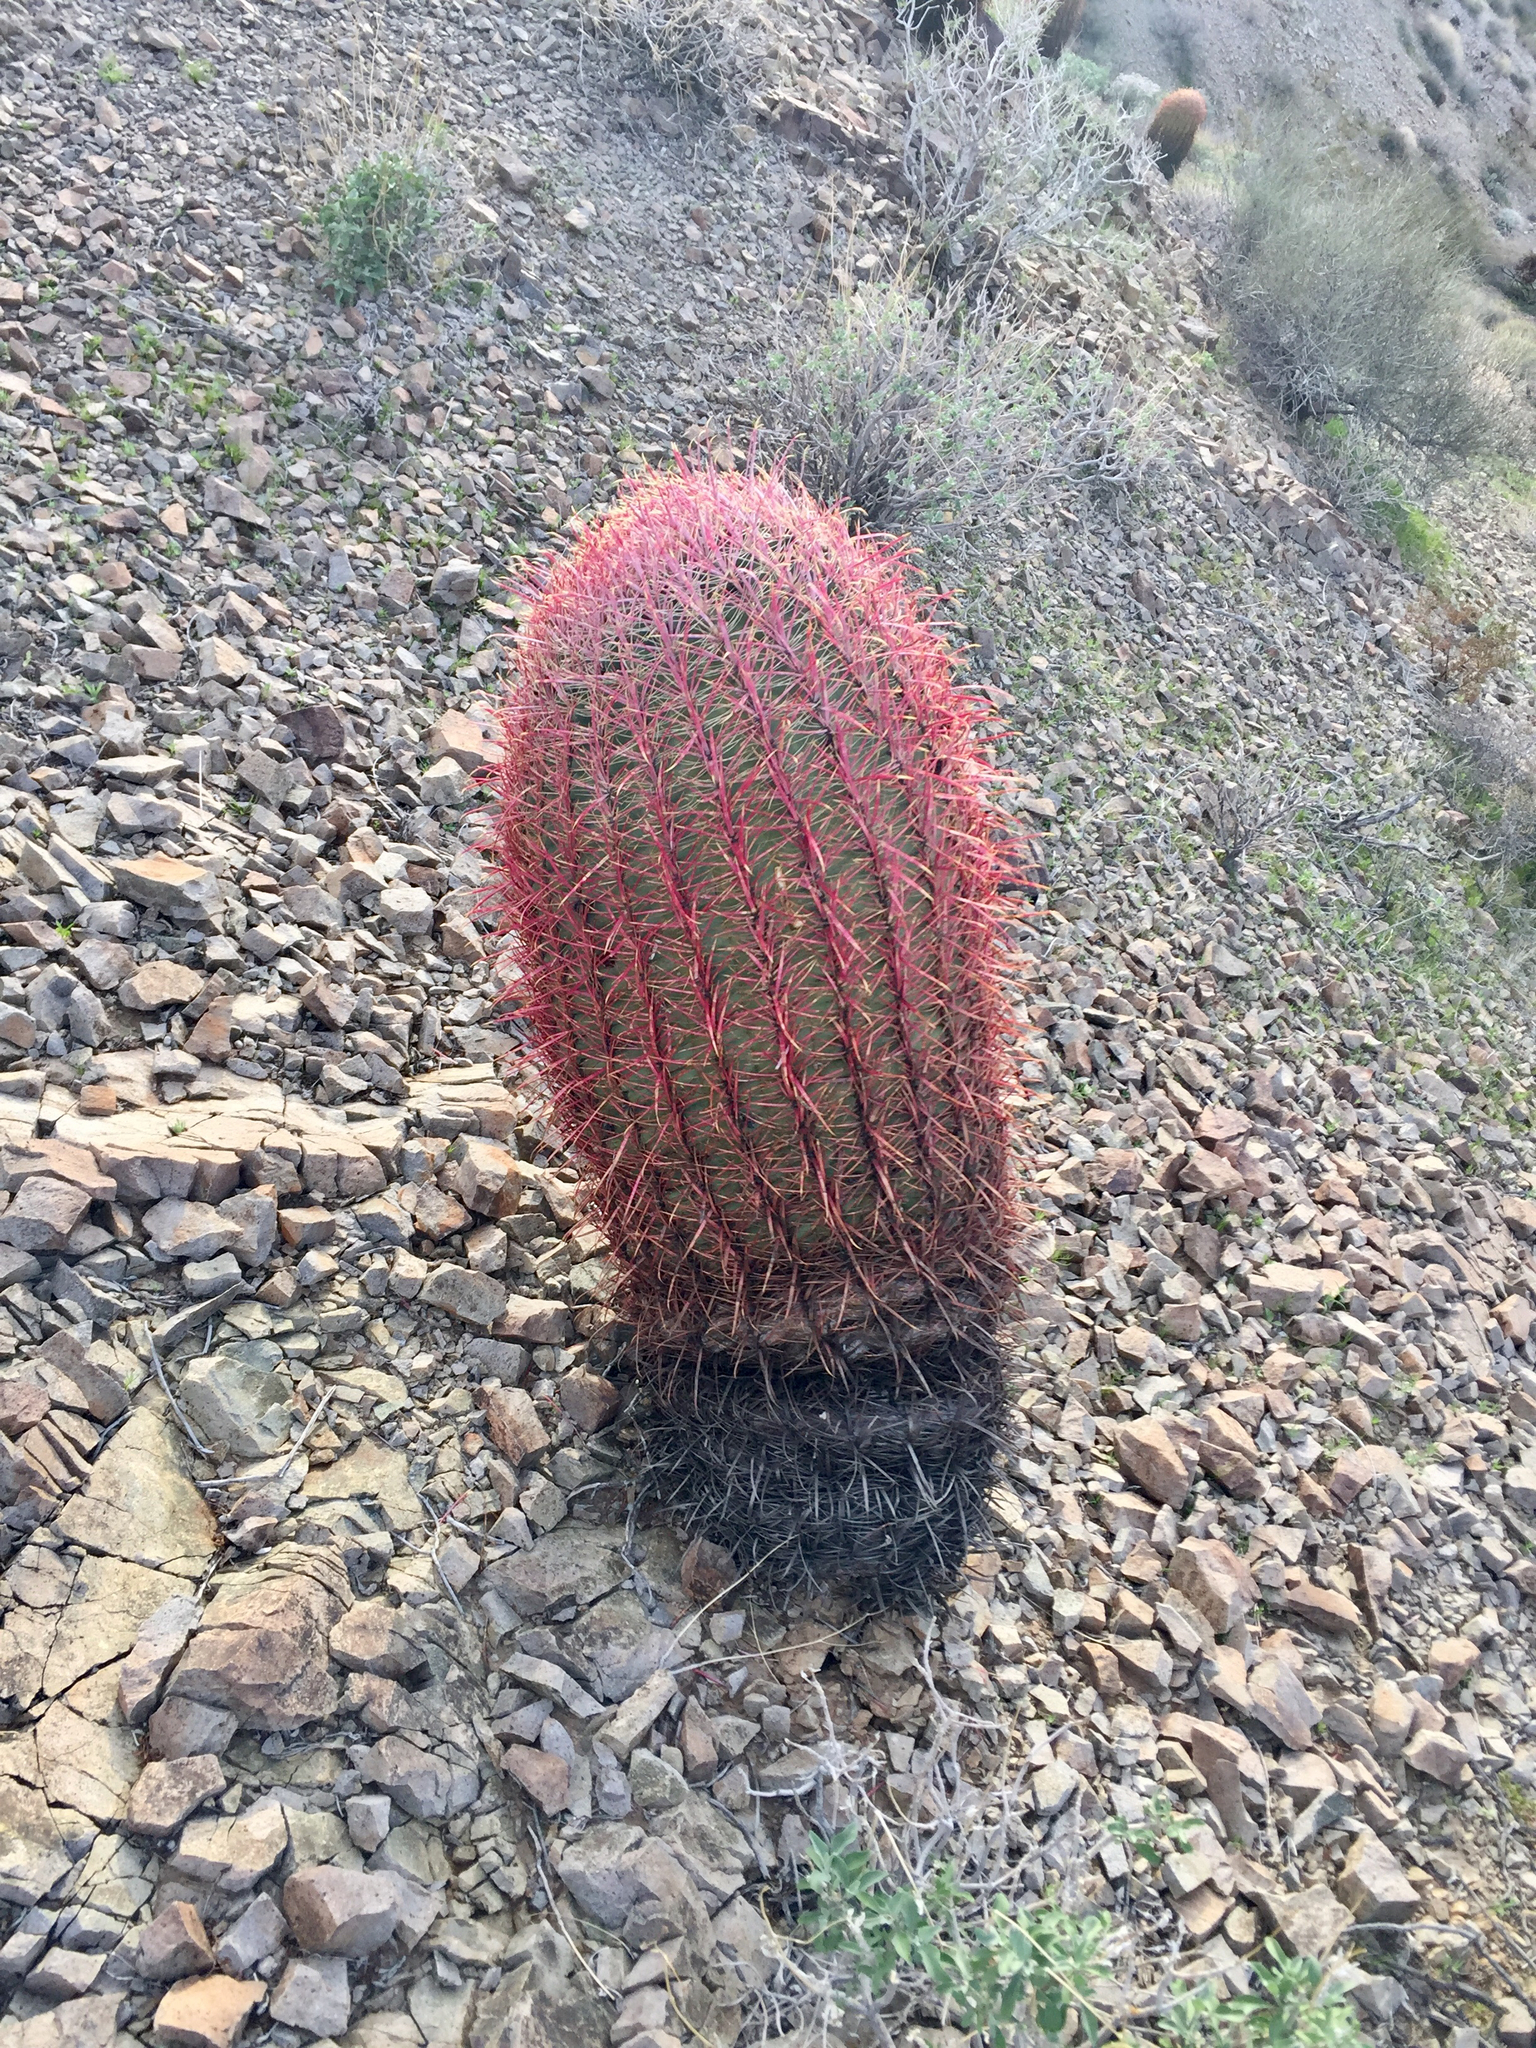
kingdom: Plantae
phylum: Tracheophyta
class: Magnoliopsida
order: Caryophyllales
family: Cactaceae
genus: Ferocactus
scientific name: Ferocactus cylindraceus
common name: California barrel cactus
